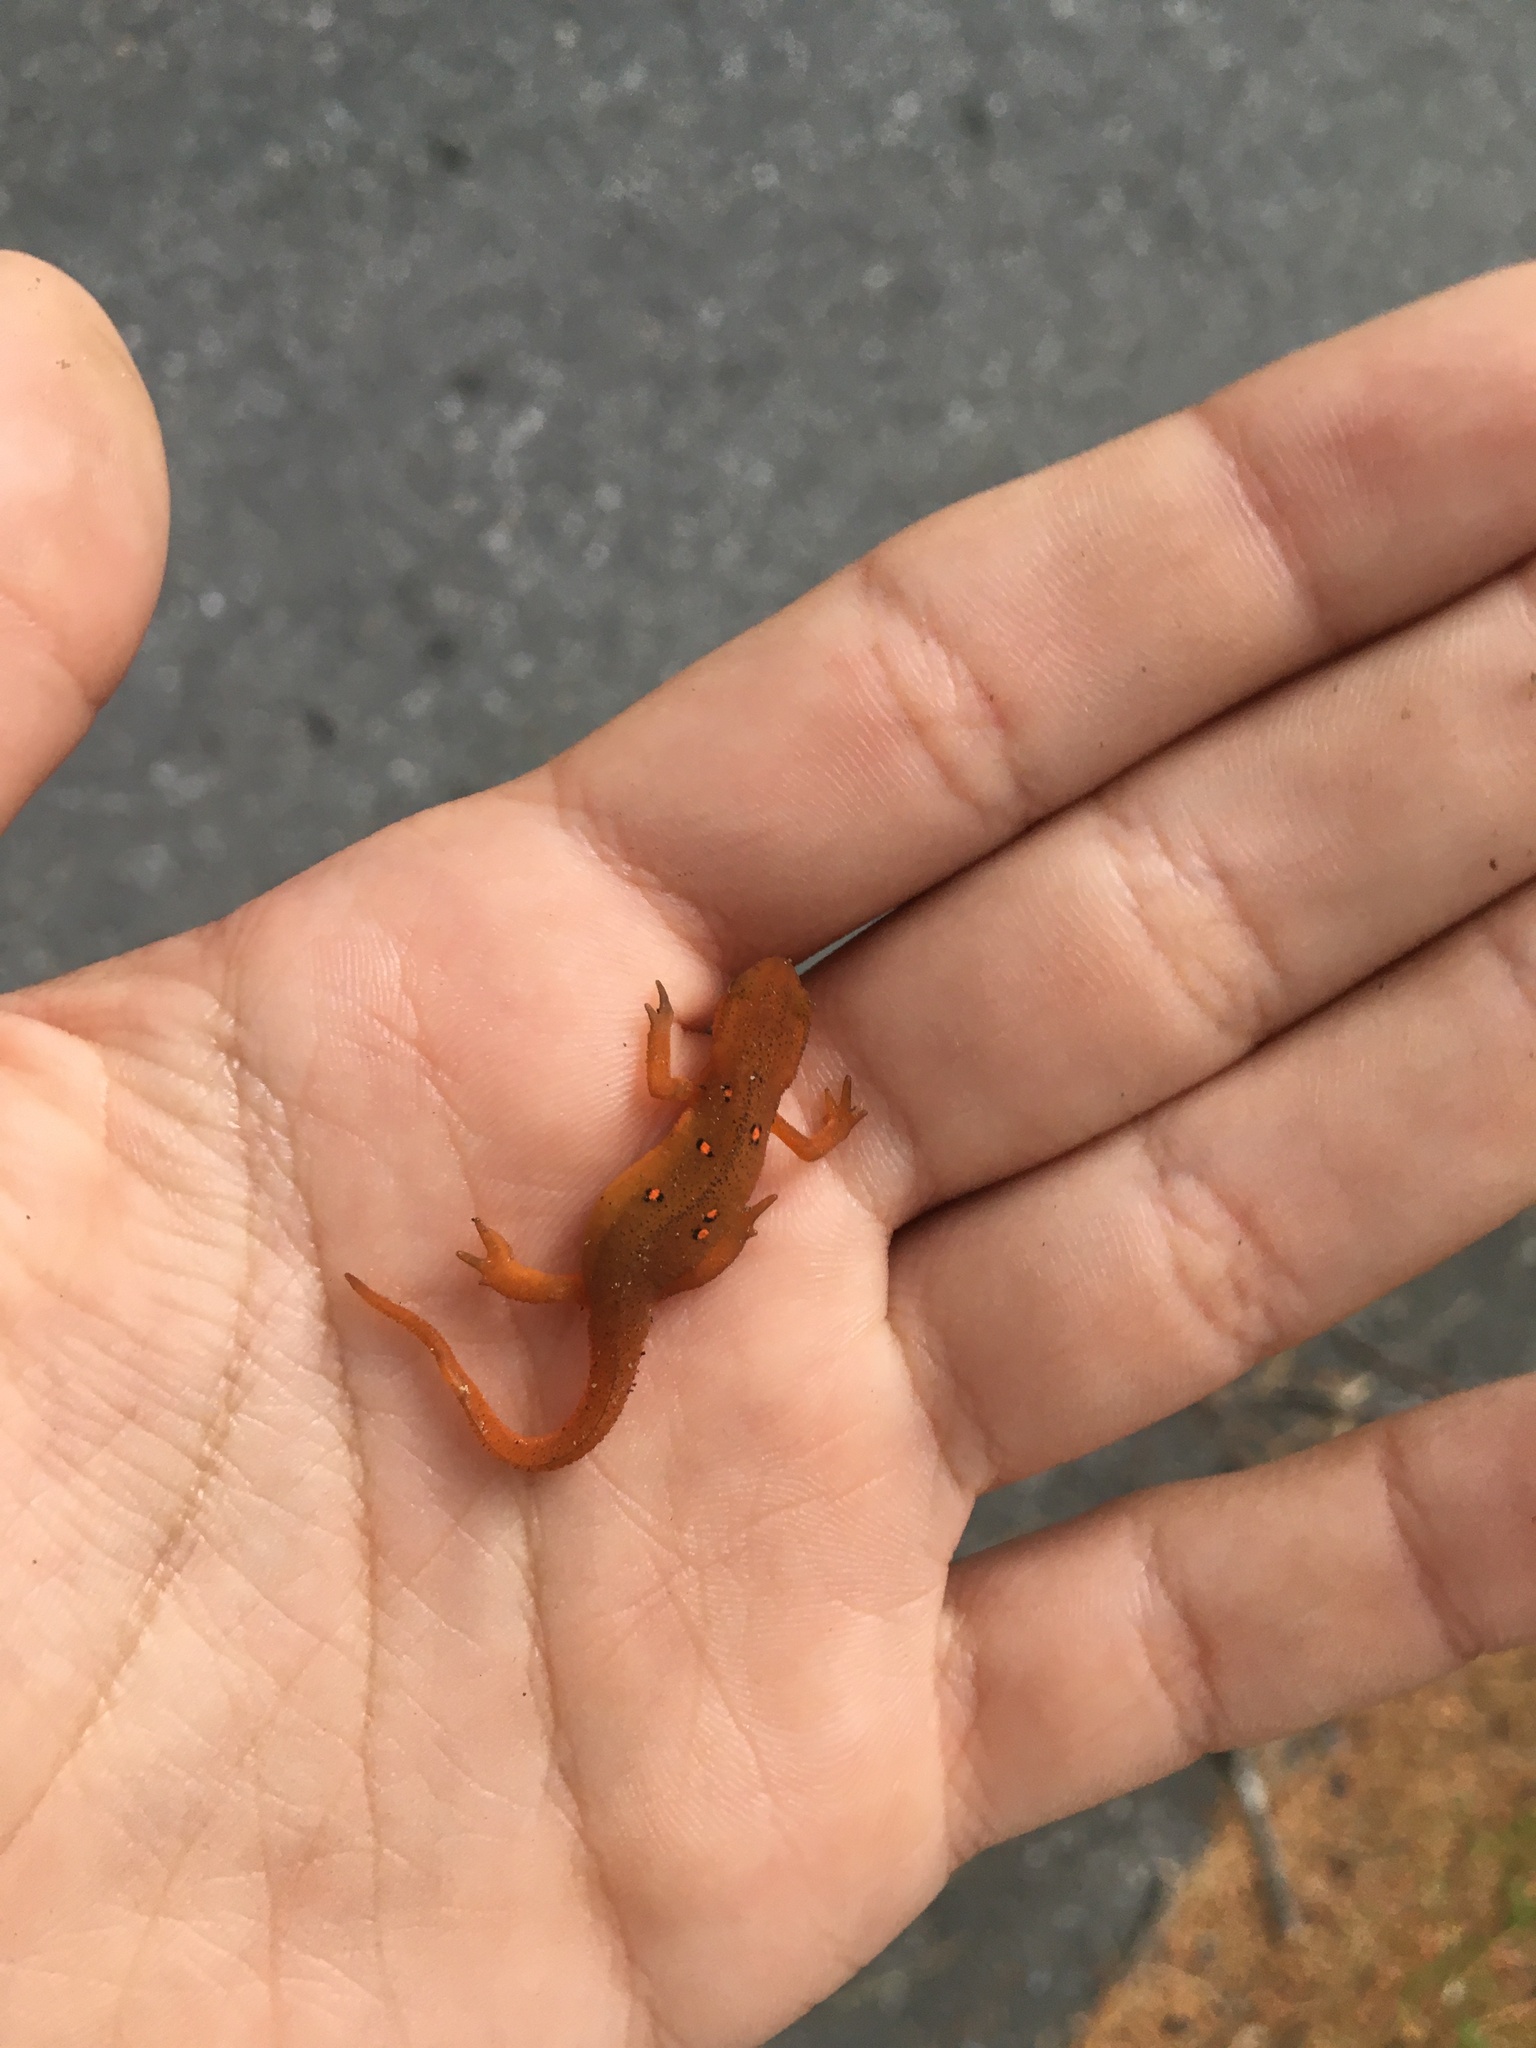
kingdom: Animalia
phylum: Chordata
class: Amphibia
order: Caudata
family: Salamandridae
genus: Notophthalmus
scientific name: Notophthalmus viridescens
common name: Eastern newt
